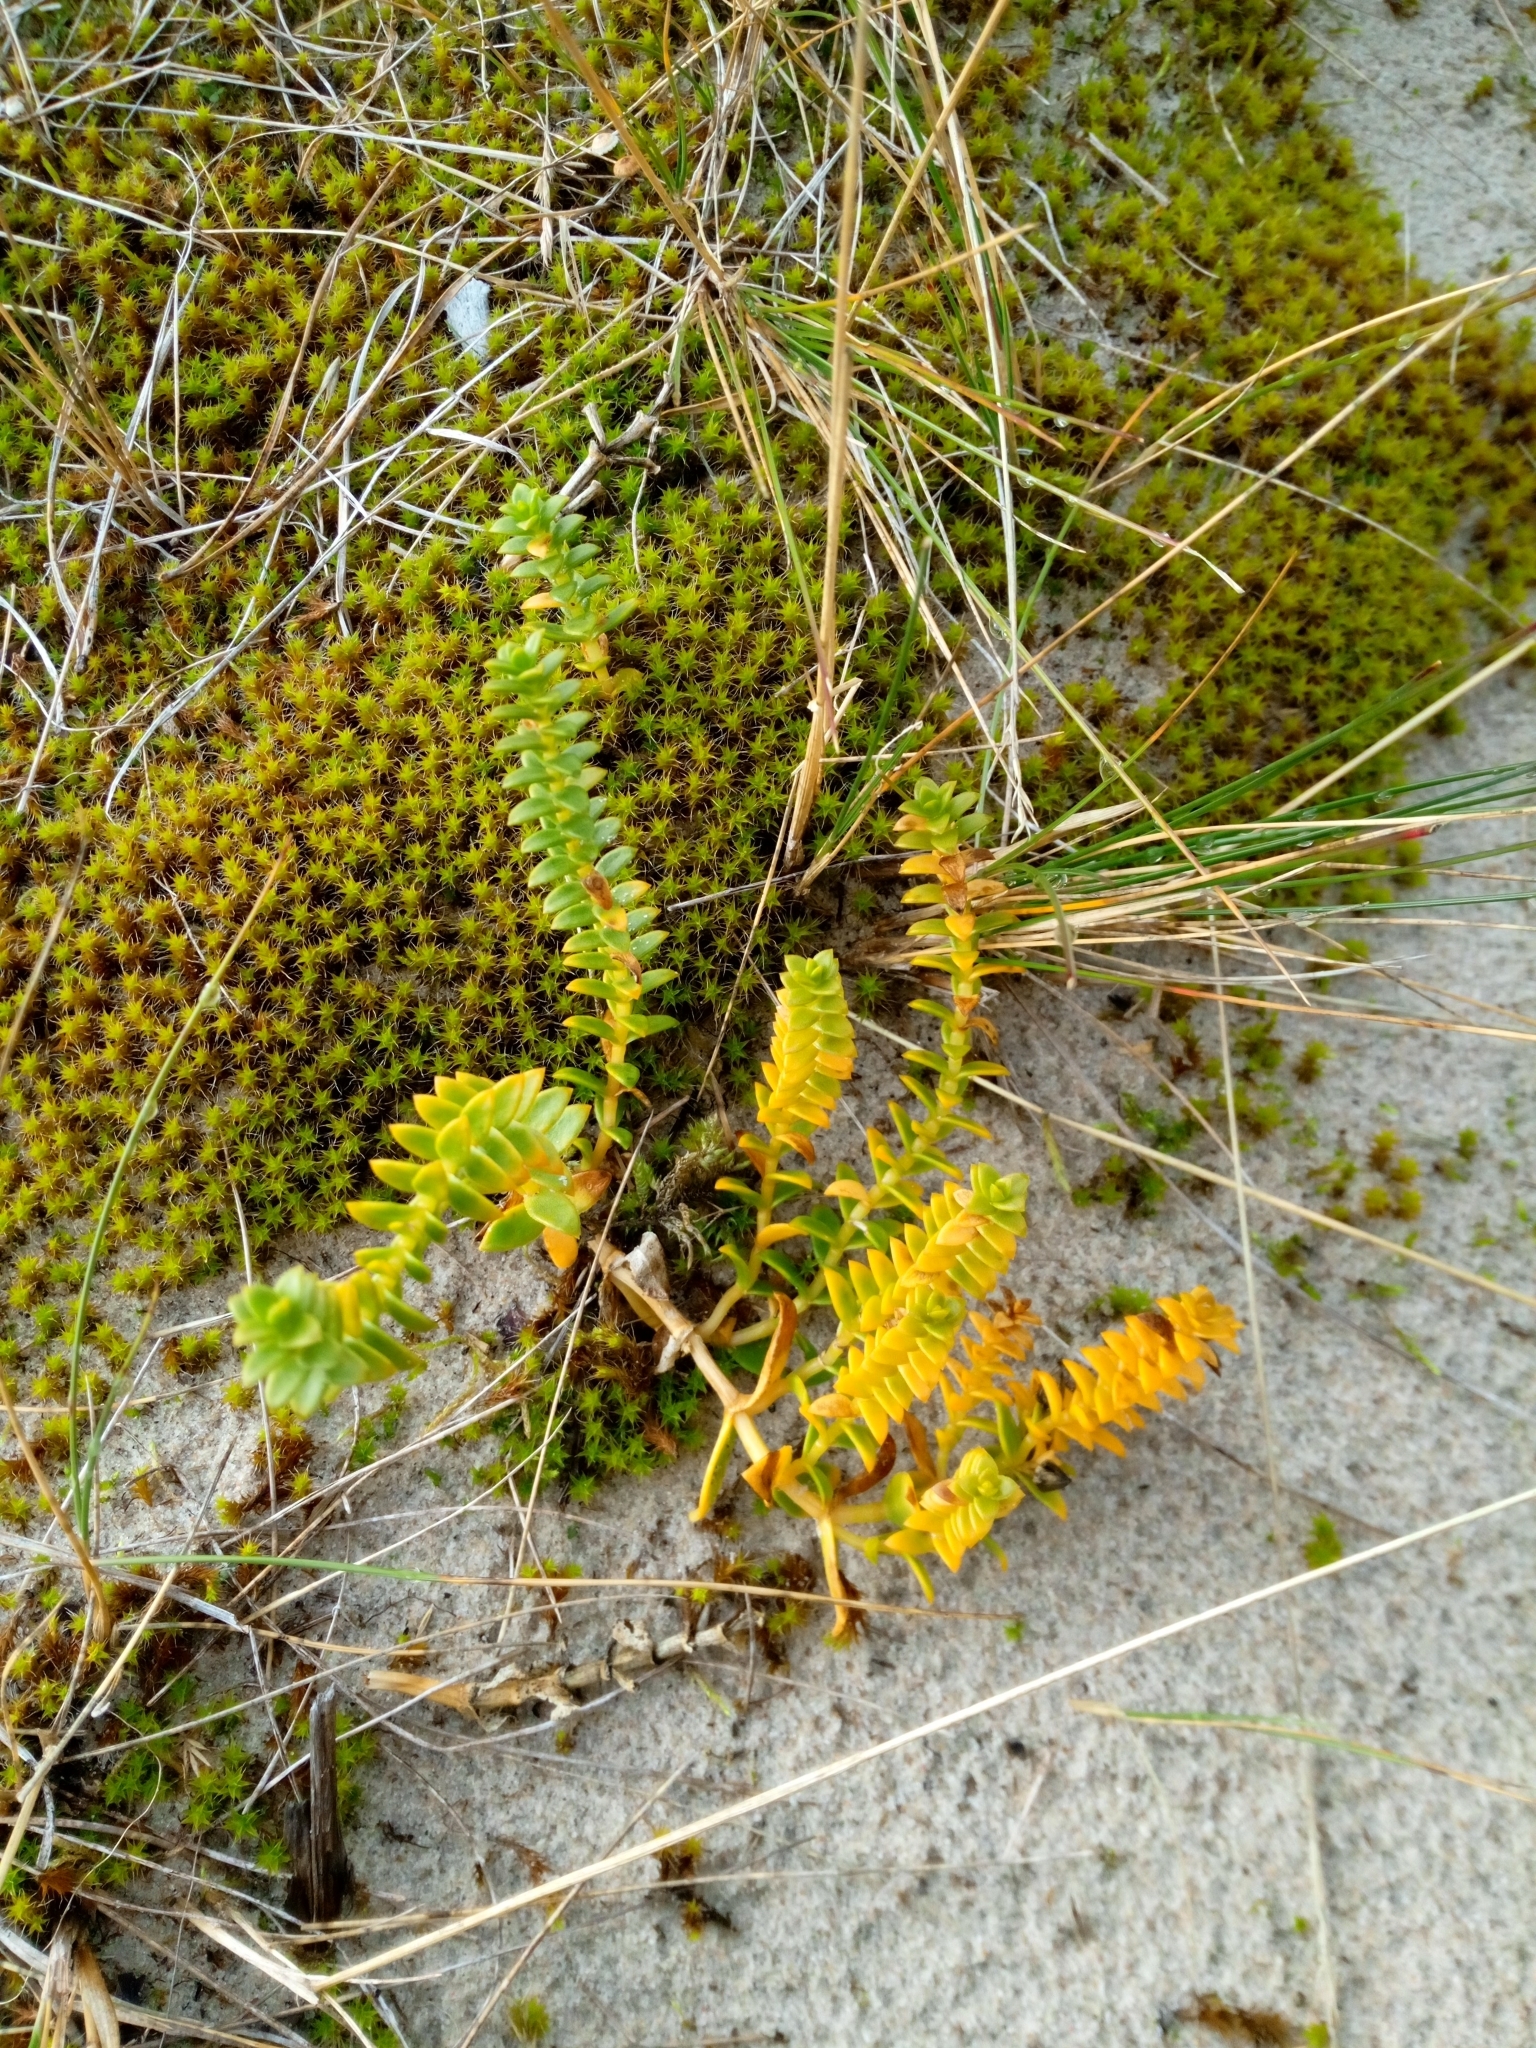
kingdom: Plantae
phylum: Tracheophyta
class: Magnoliopsida
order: Caryophyllales
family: Caryophyllaceae
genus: Honckenya
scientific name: Honckenya peploides
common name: Sea sandwort
